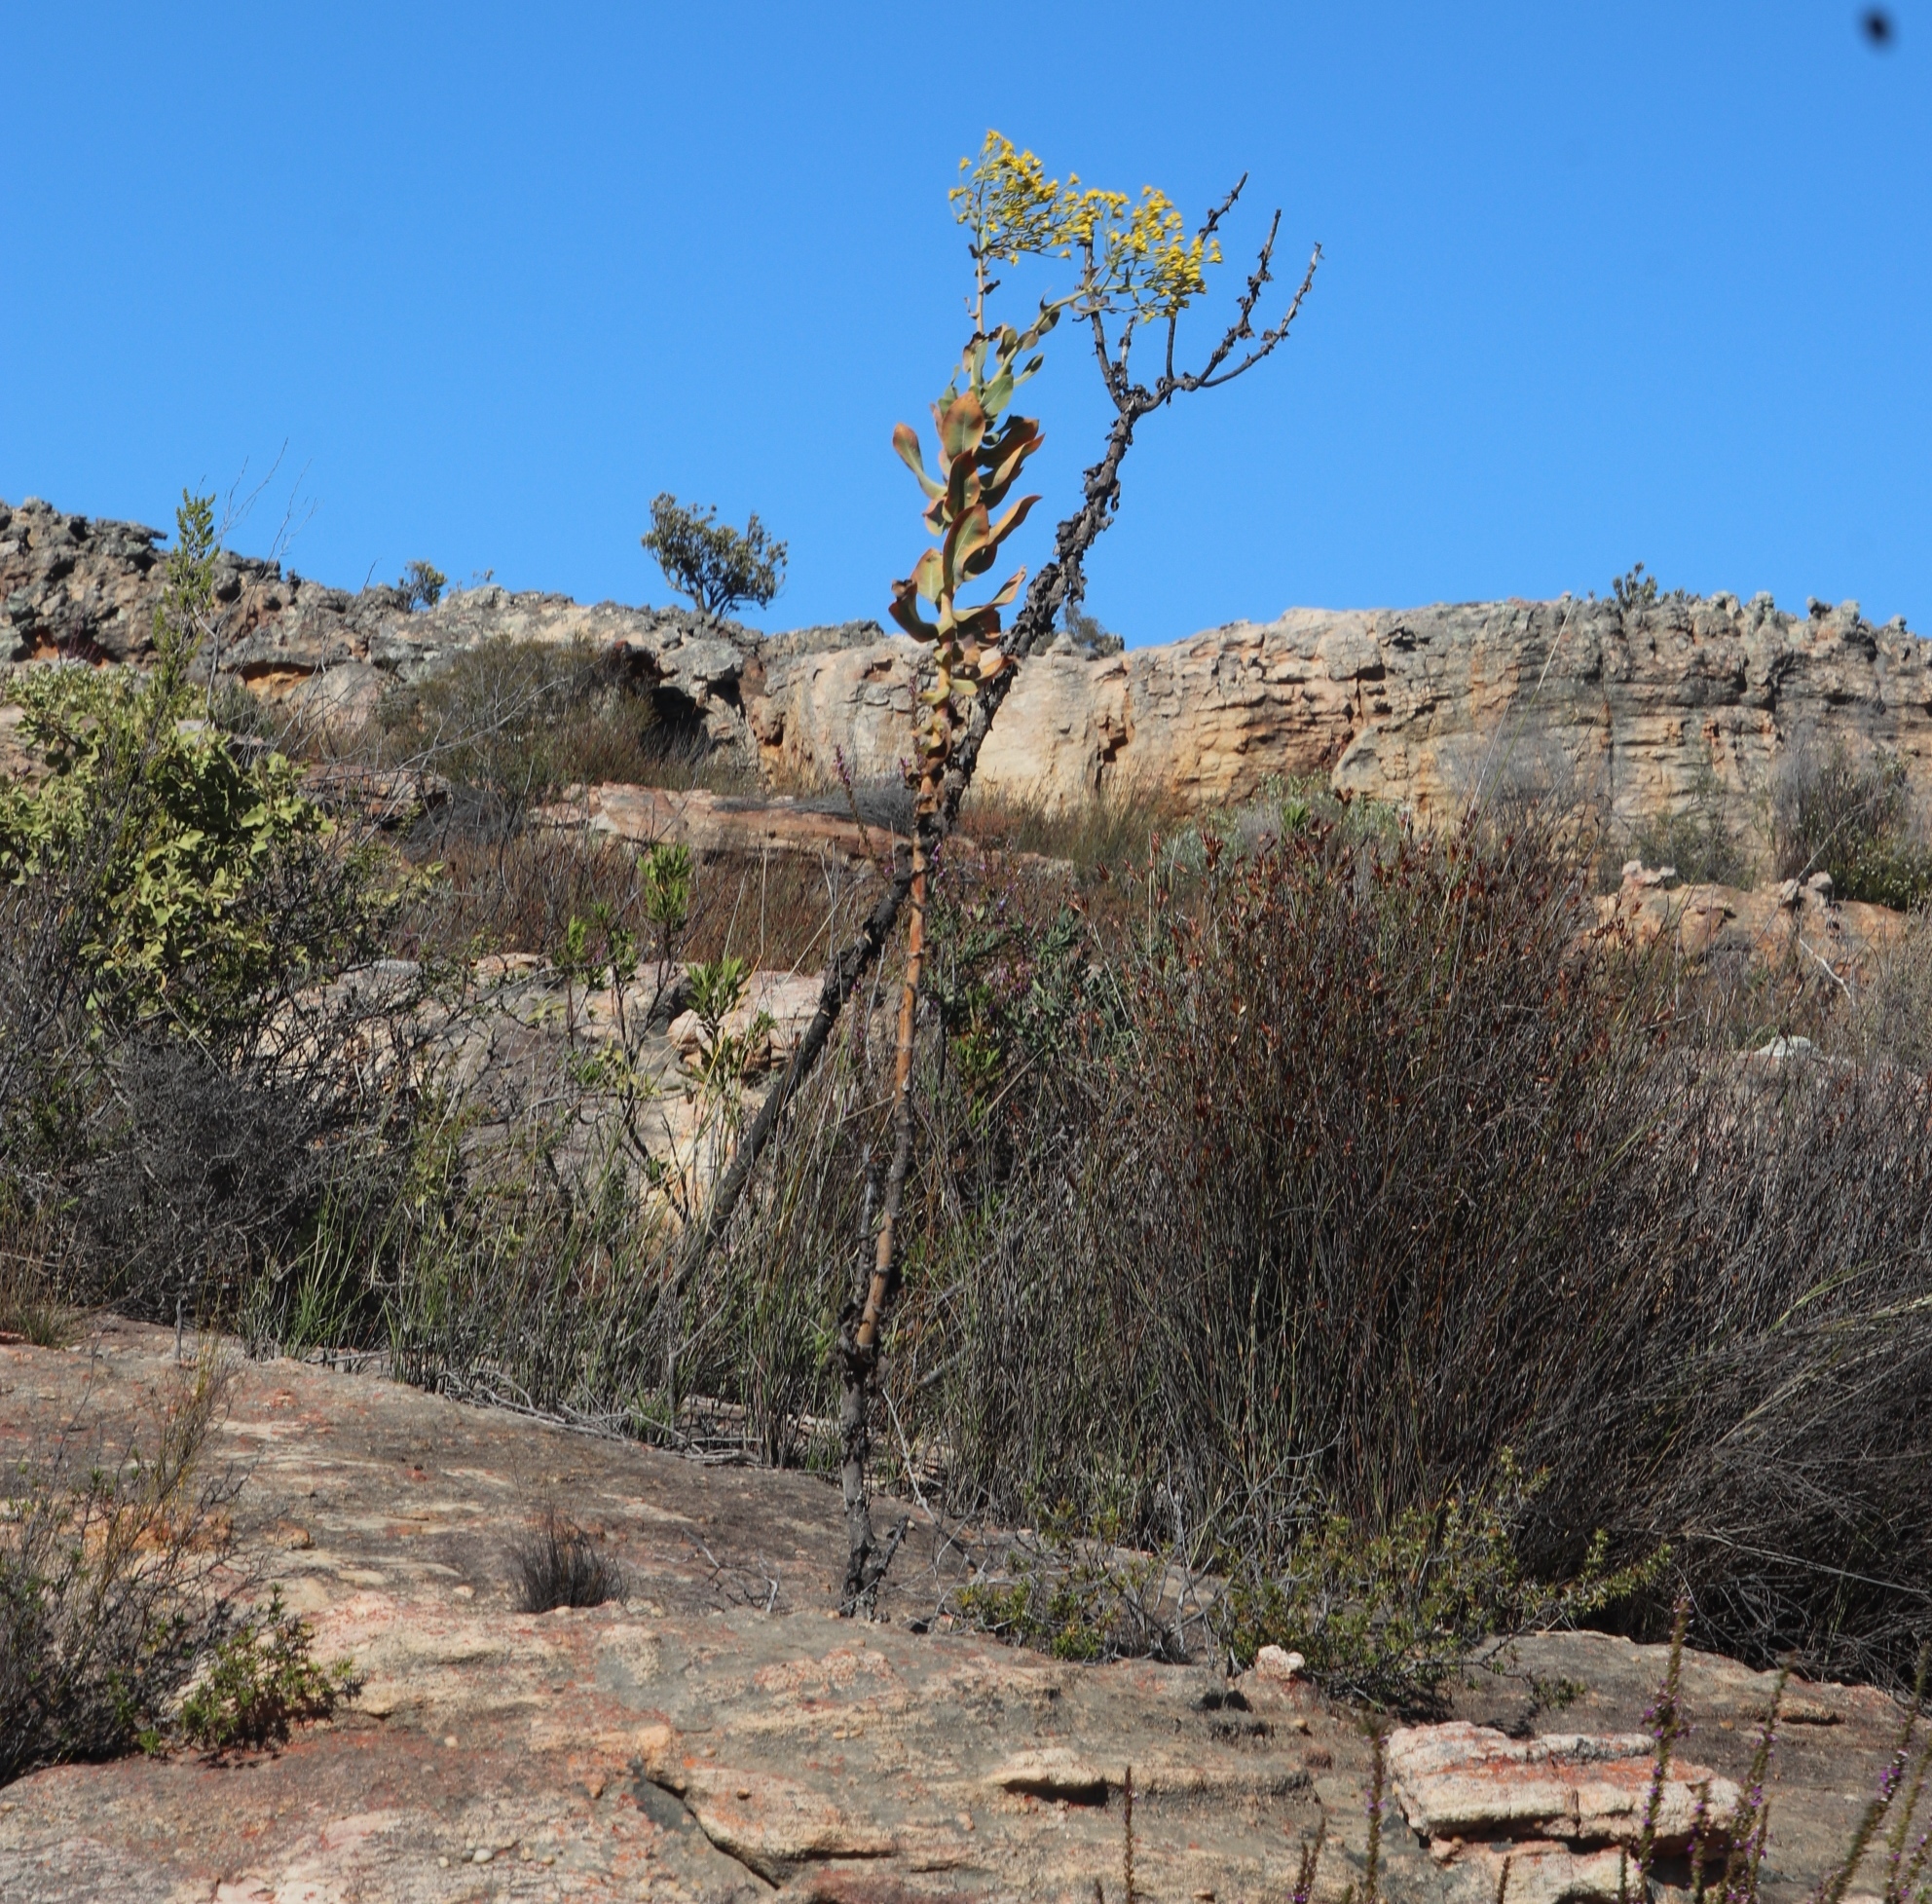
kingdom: Plantae
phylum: Tracheophyta
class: Magnoliopsida
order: Asterales
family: Asteraceae
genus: Othonna
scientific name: Othonna parviflora
